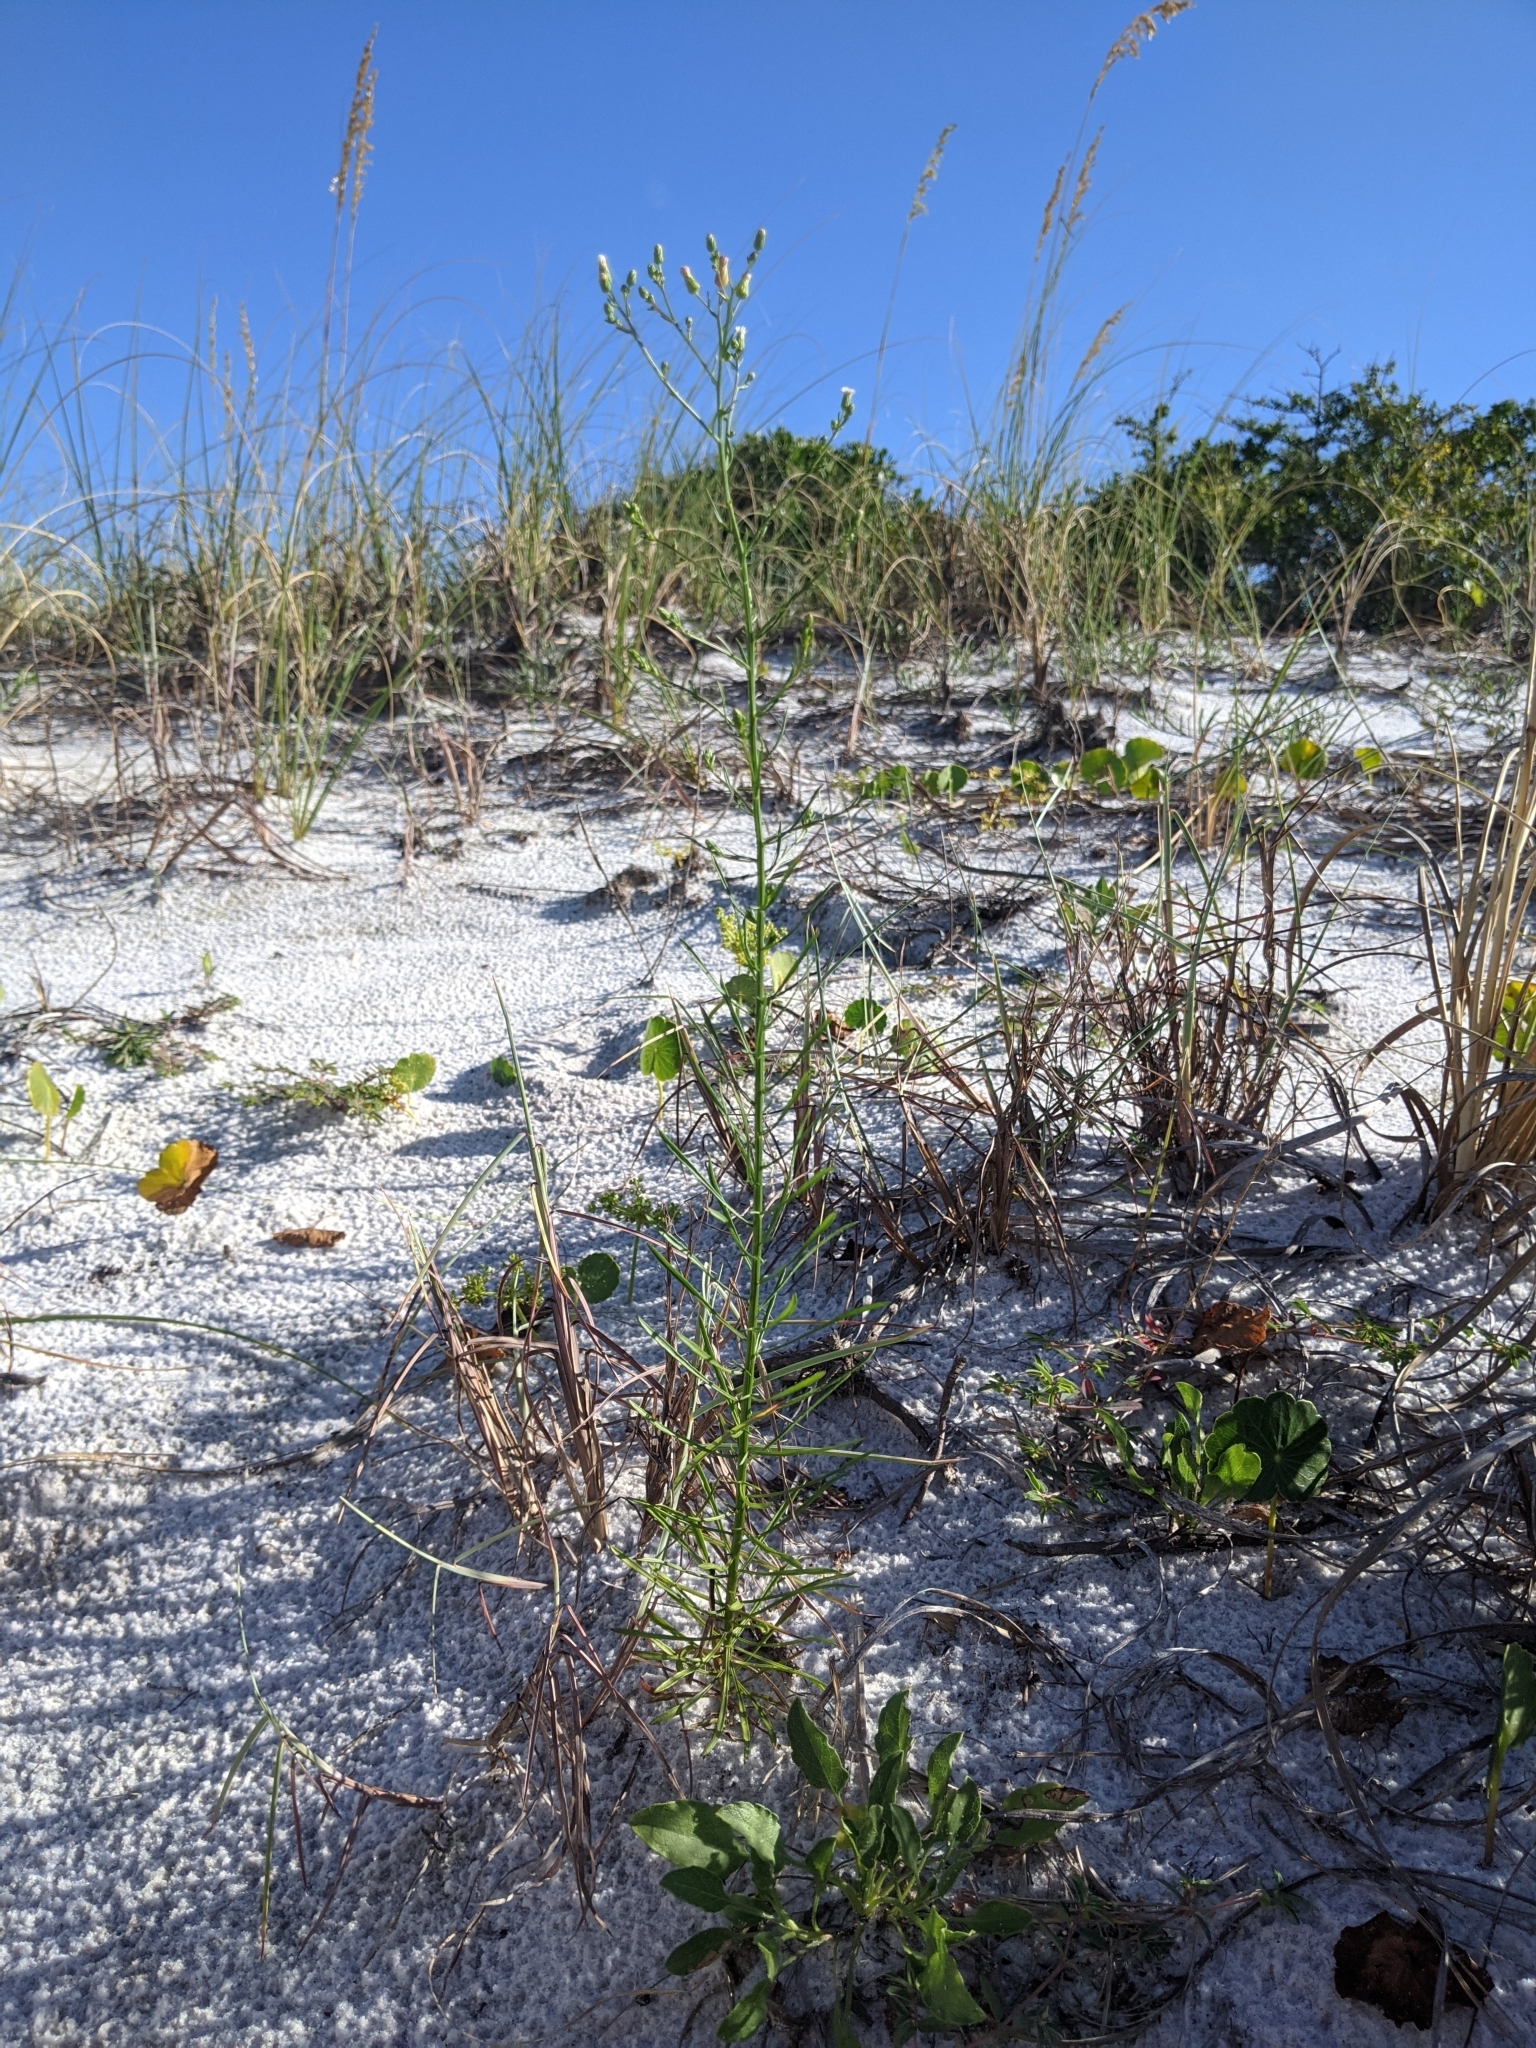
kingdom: Plantae
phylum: Tracheophyta
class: Magnoliopsida
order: Asterales
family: Asteraceae
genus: Erigeron
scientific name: Erigeron canadensis
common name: Canadian fleabane
